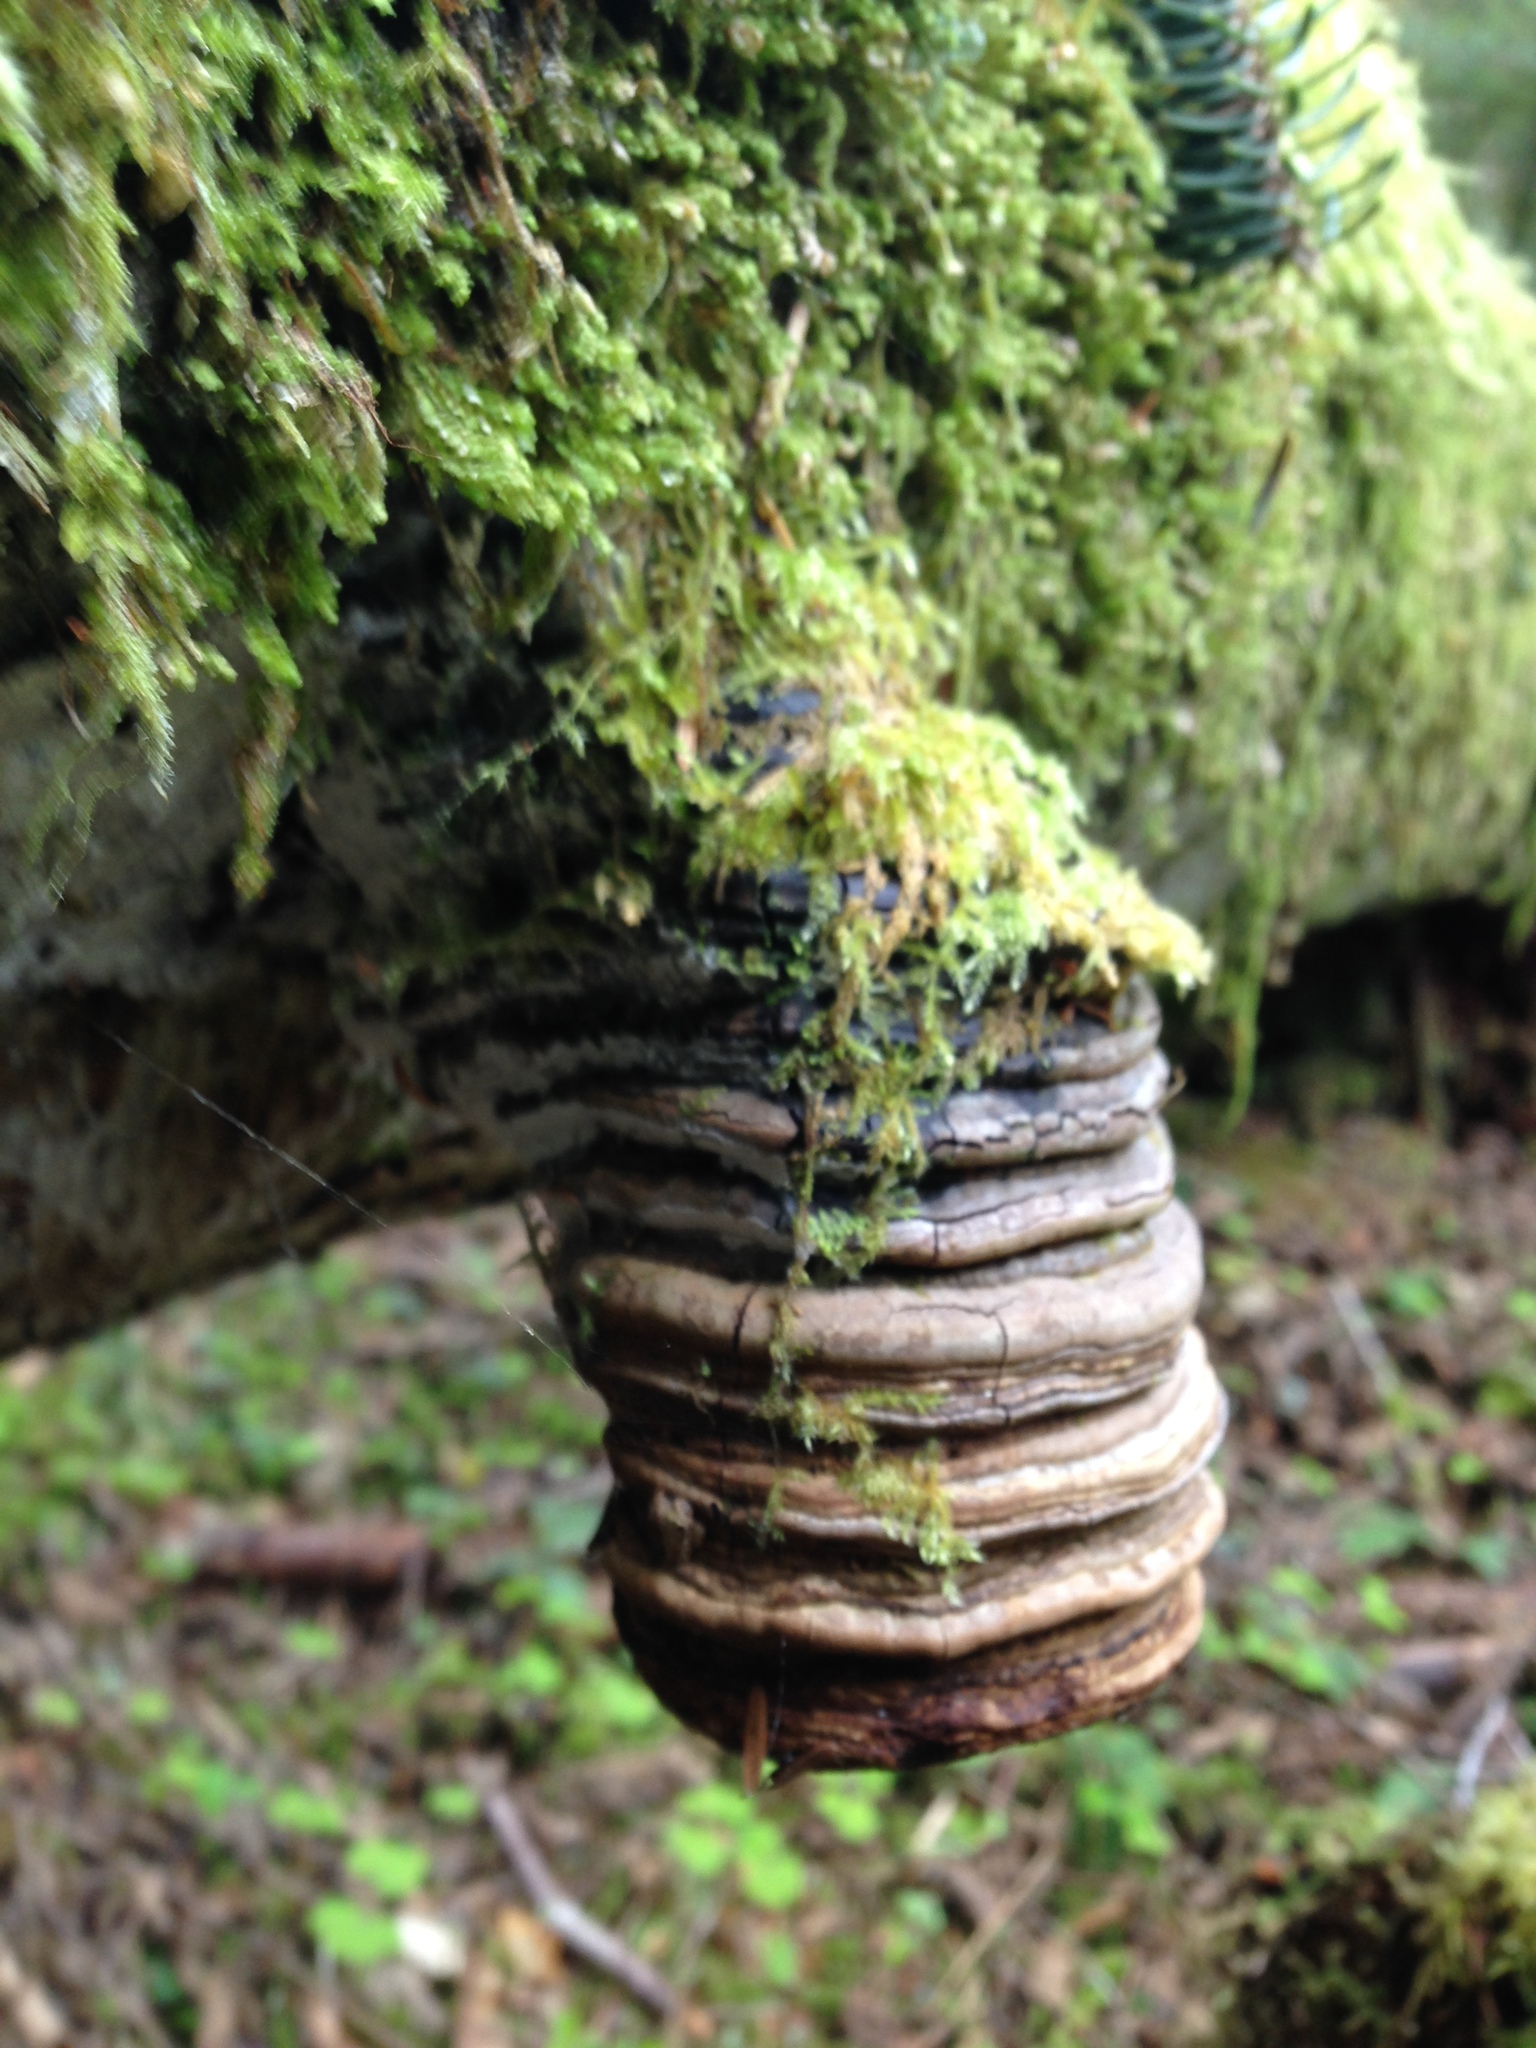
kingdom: Fungi
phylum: Basidiomycota
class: Agaricomycetes
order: Polyporales
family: Polyporaceae
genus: Ganoderma
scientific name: Ganoderma brownii
